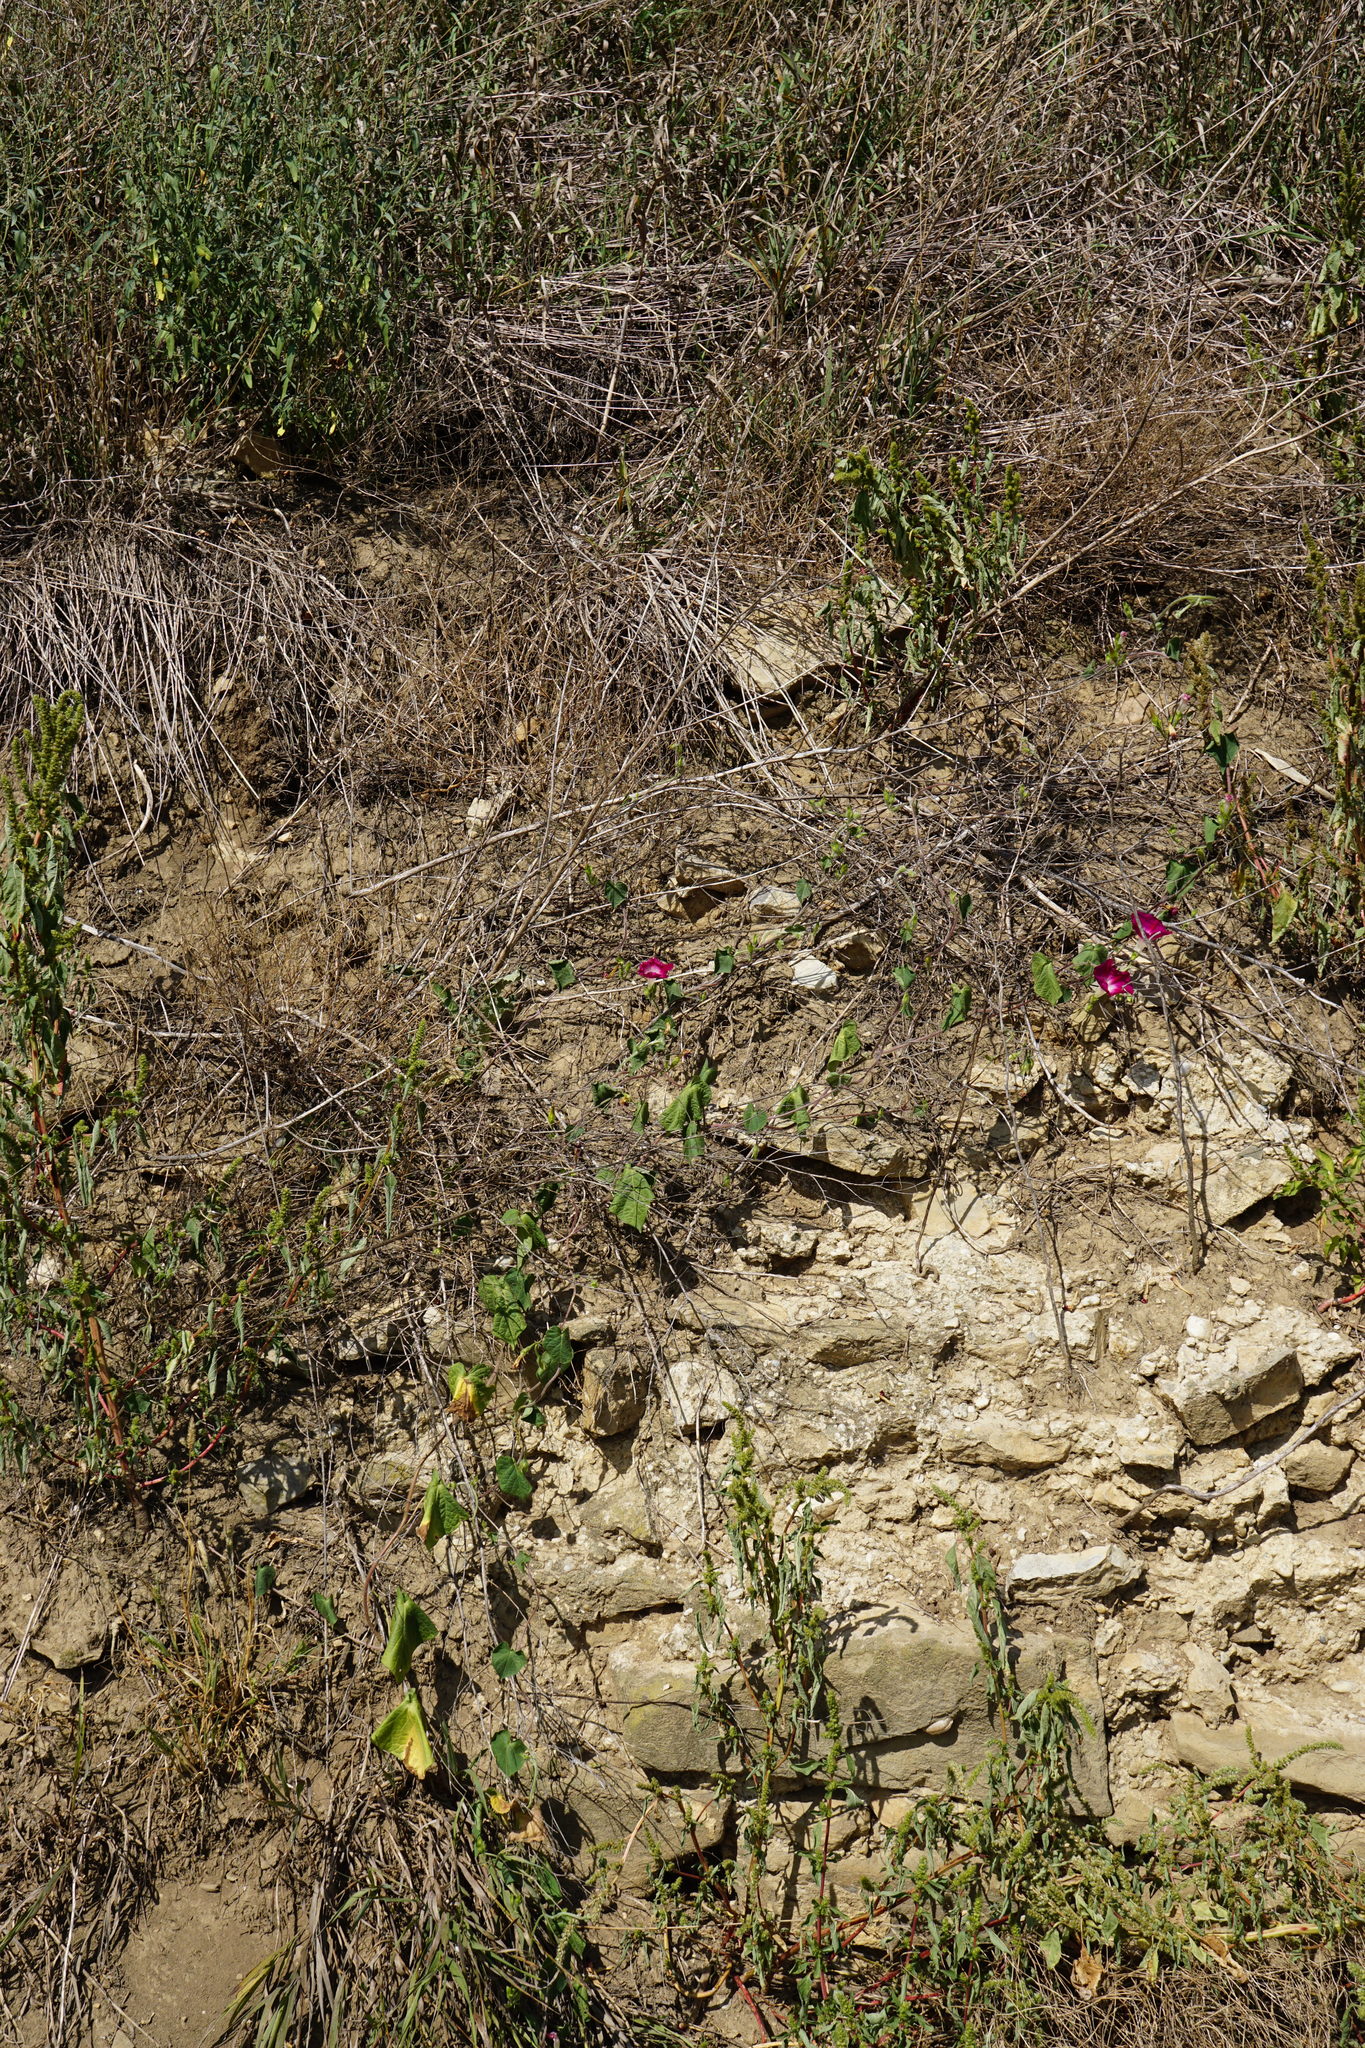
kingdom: Plantae
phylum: Tracheophyta
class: Magnoliopsida
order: Solanales
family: Convolvulaceae
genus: Ipomoea
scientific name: Ipomoea purpurea
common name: Common morning-glory
